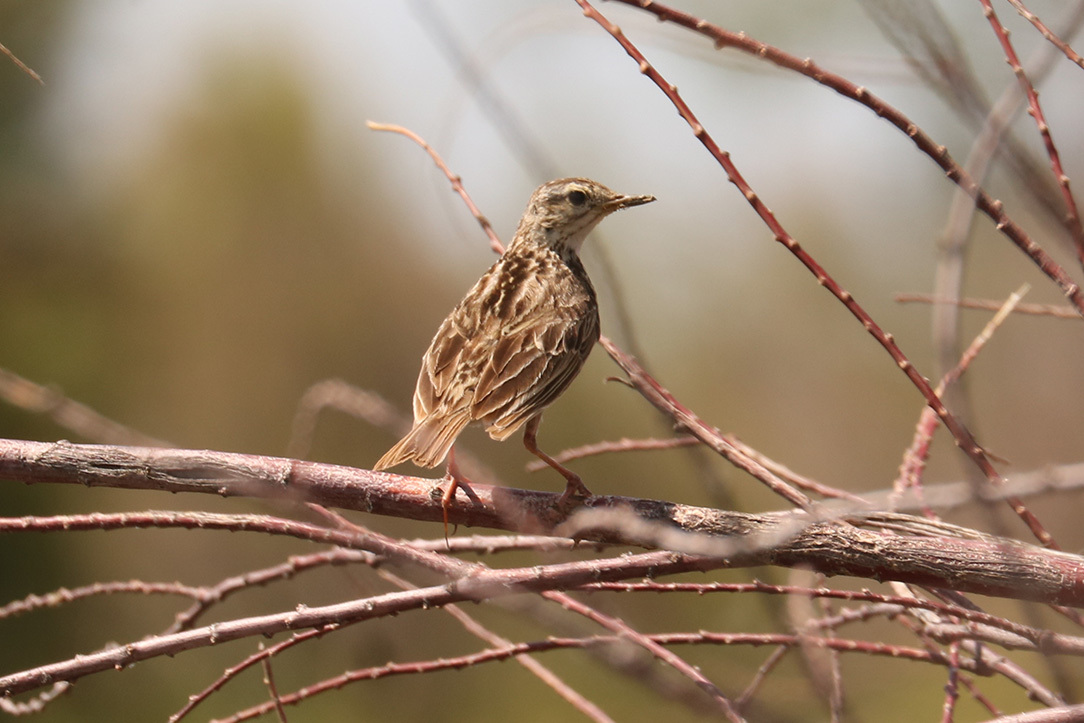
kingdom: Animalia
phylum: Chordata
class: Aves
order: Passeriformes
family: Motacillidae
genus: Anthus
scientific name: Anthus correndera
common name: Correndera pipit
